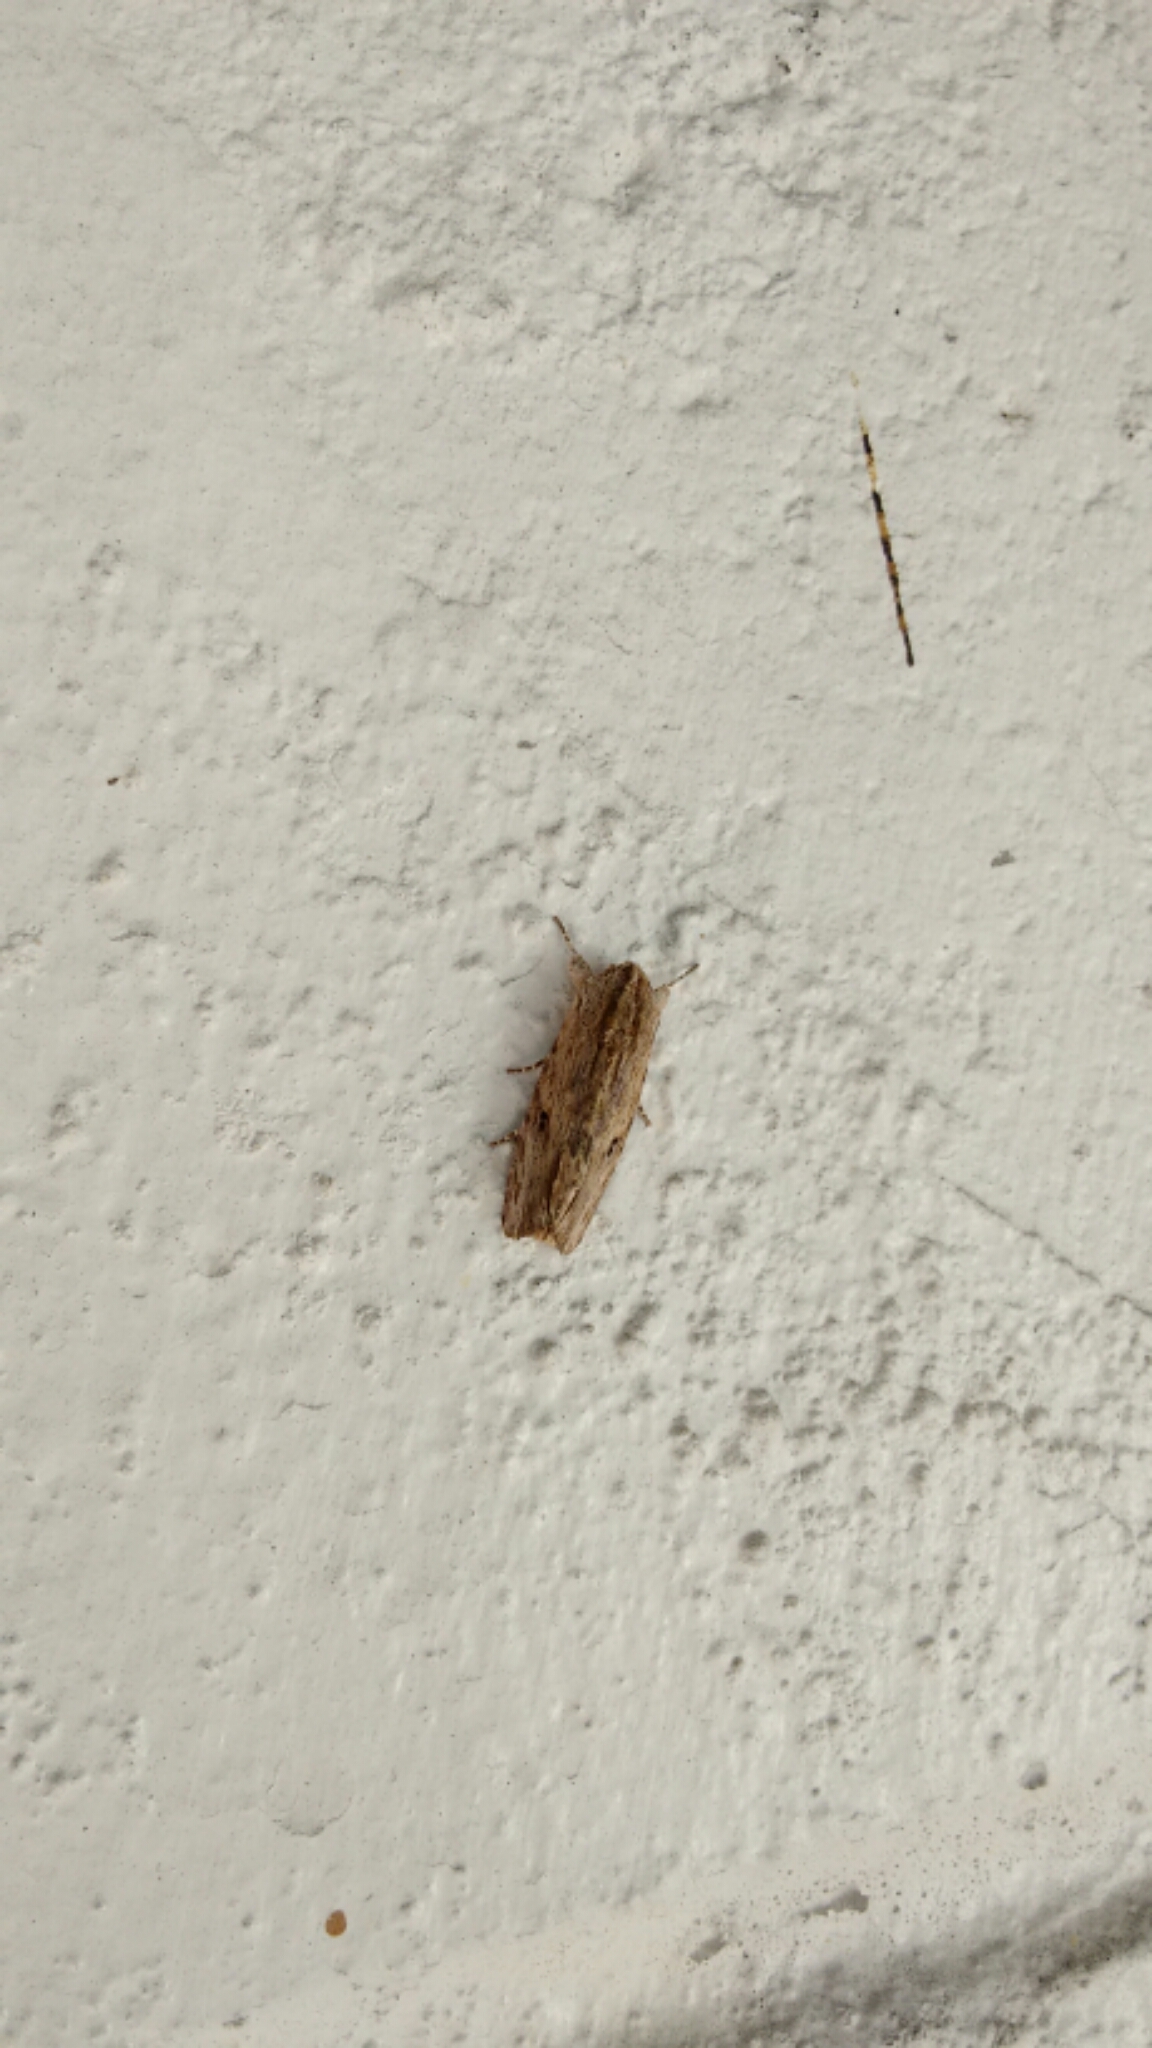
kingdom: Animalia
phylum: Arthropoda
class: Insecta
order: Lepidoptera
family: Noctuidae
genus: Spodoptera
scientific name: Spodoptera eridania
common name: Southern army worm
